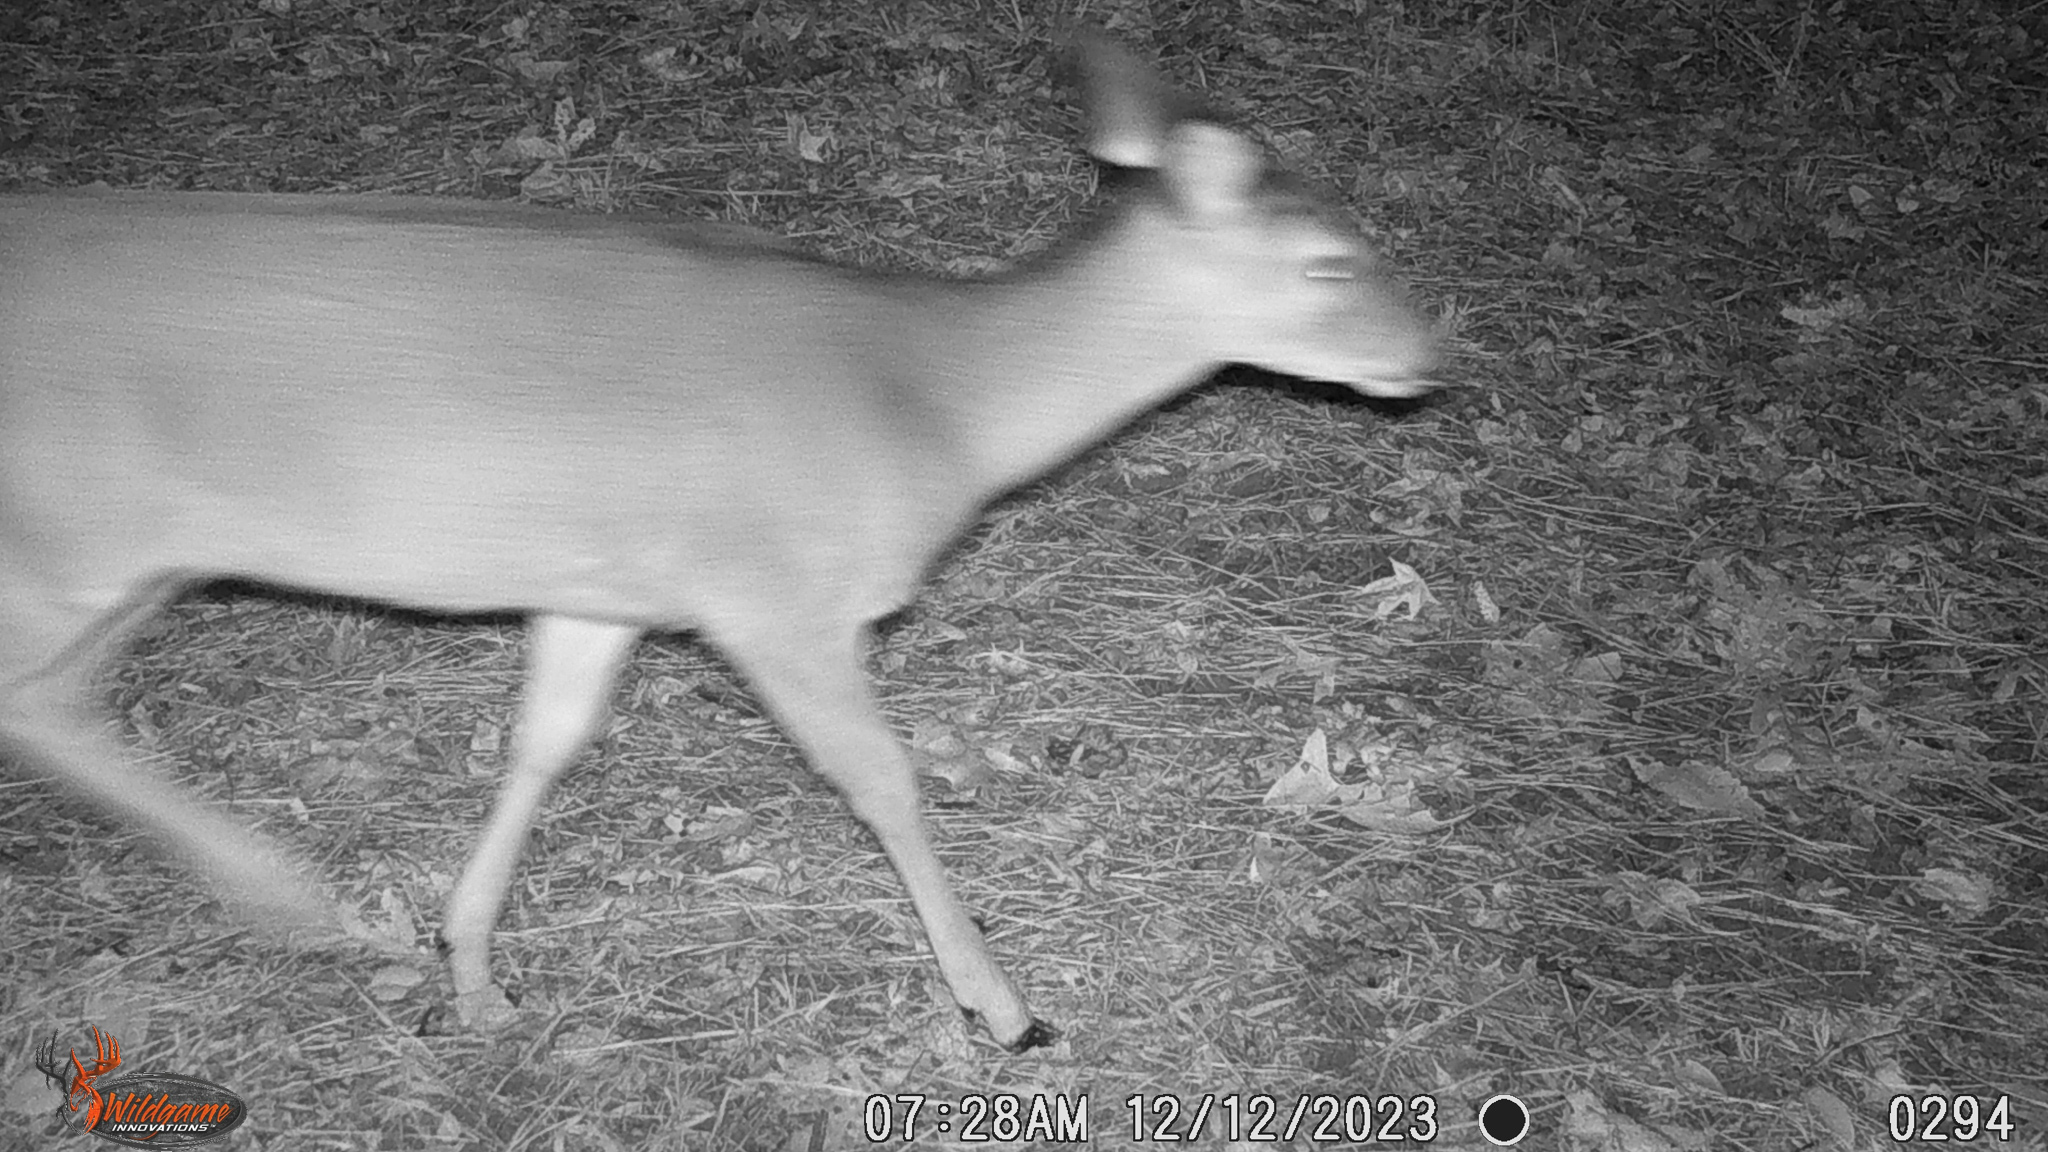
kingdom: Animalia
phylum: Chordata
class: Mammalia
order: Artiodactyla
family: Cervidae
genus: Odocoileus
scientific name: Odocoileus virginianus
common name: White-tailed deer
